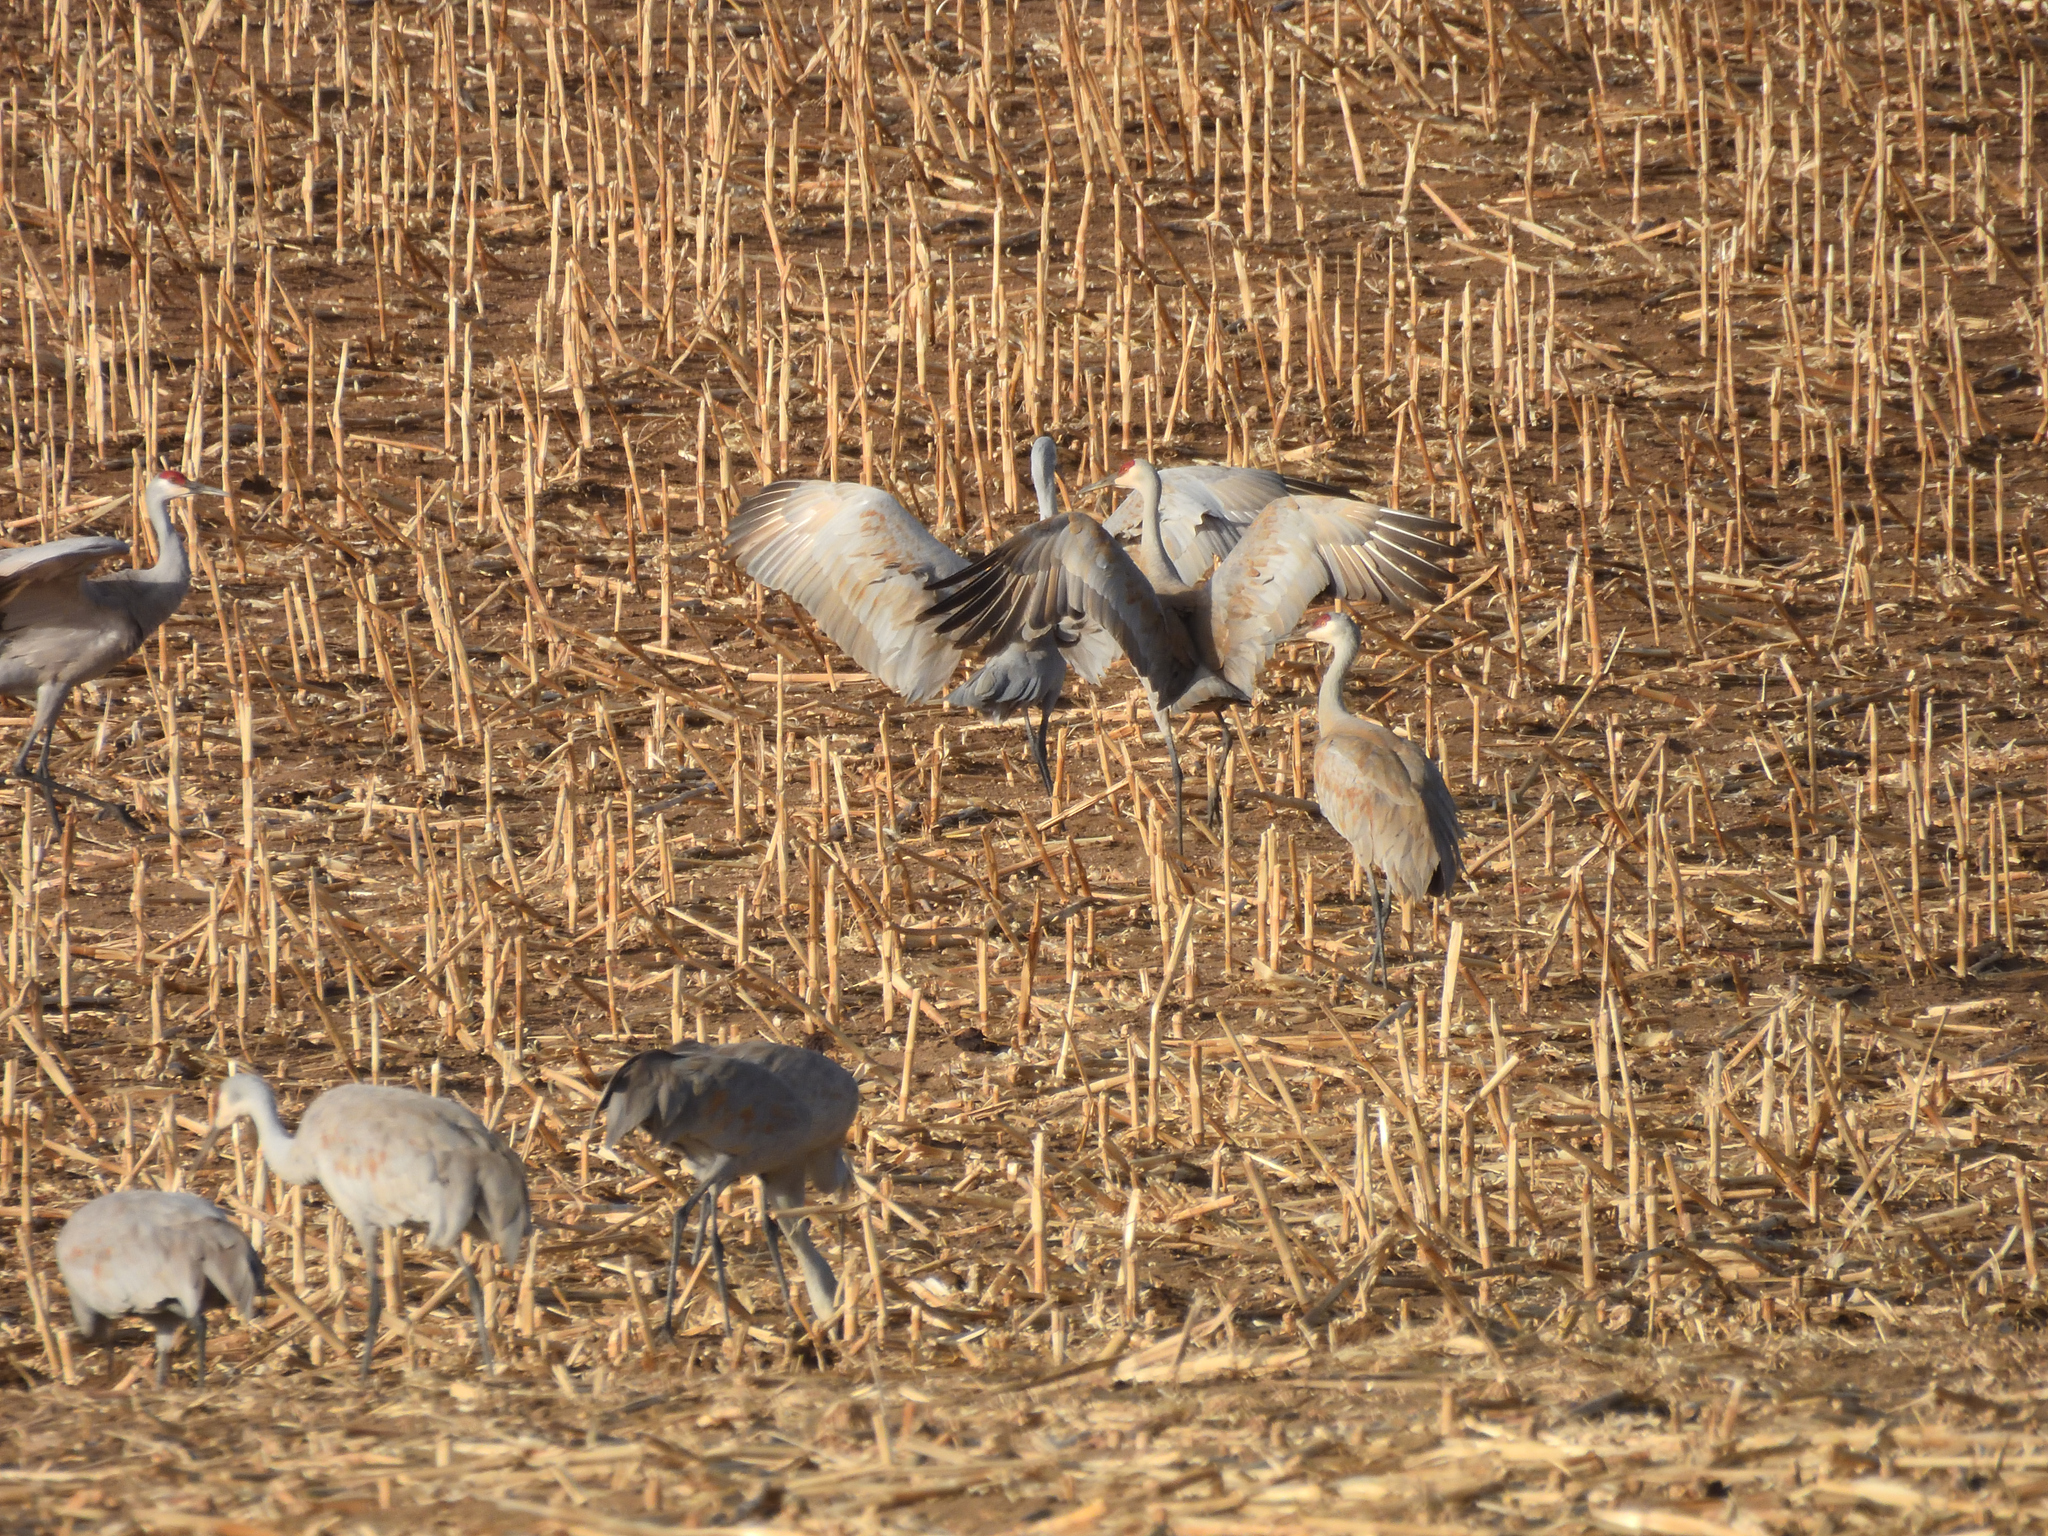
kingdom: Animalia
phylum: Chordata
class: Aves
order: Gruiformes
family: Gruidae
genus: Grus
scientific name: Grus canadensis
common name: Sandhill crane
